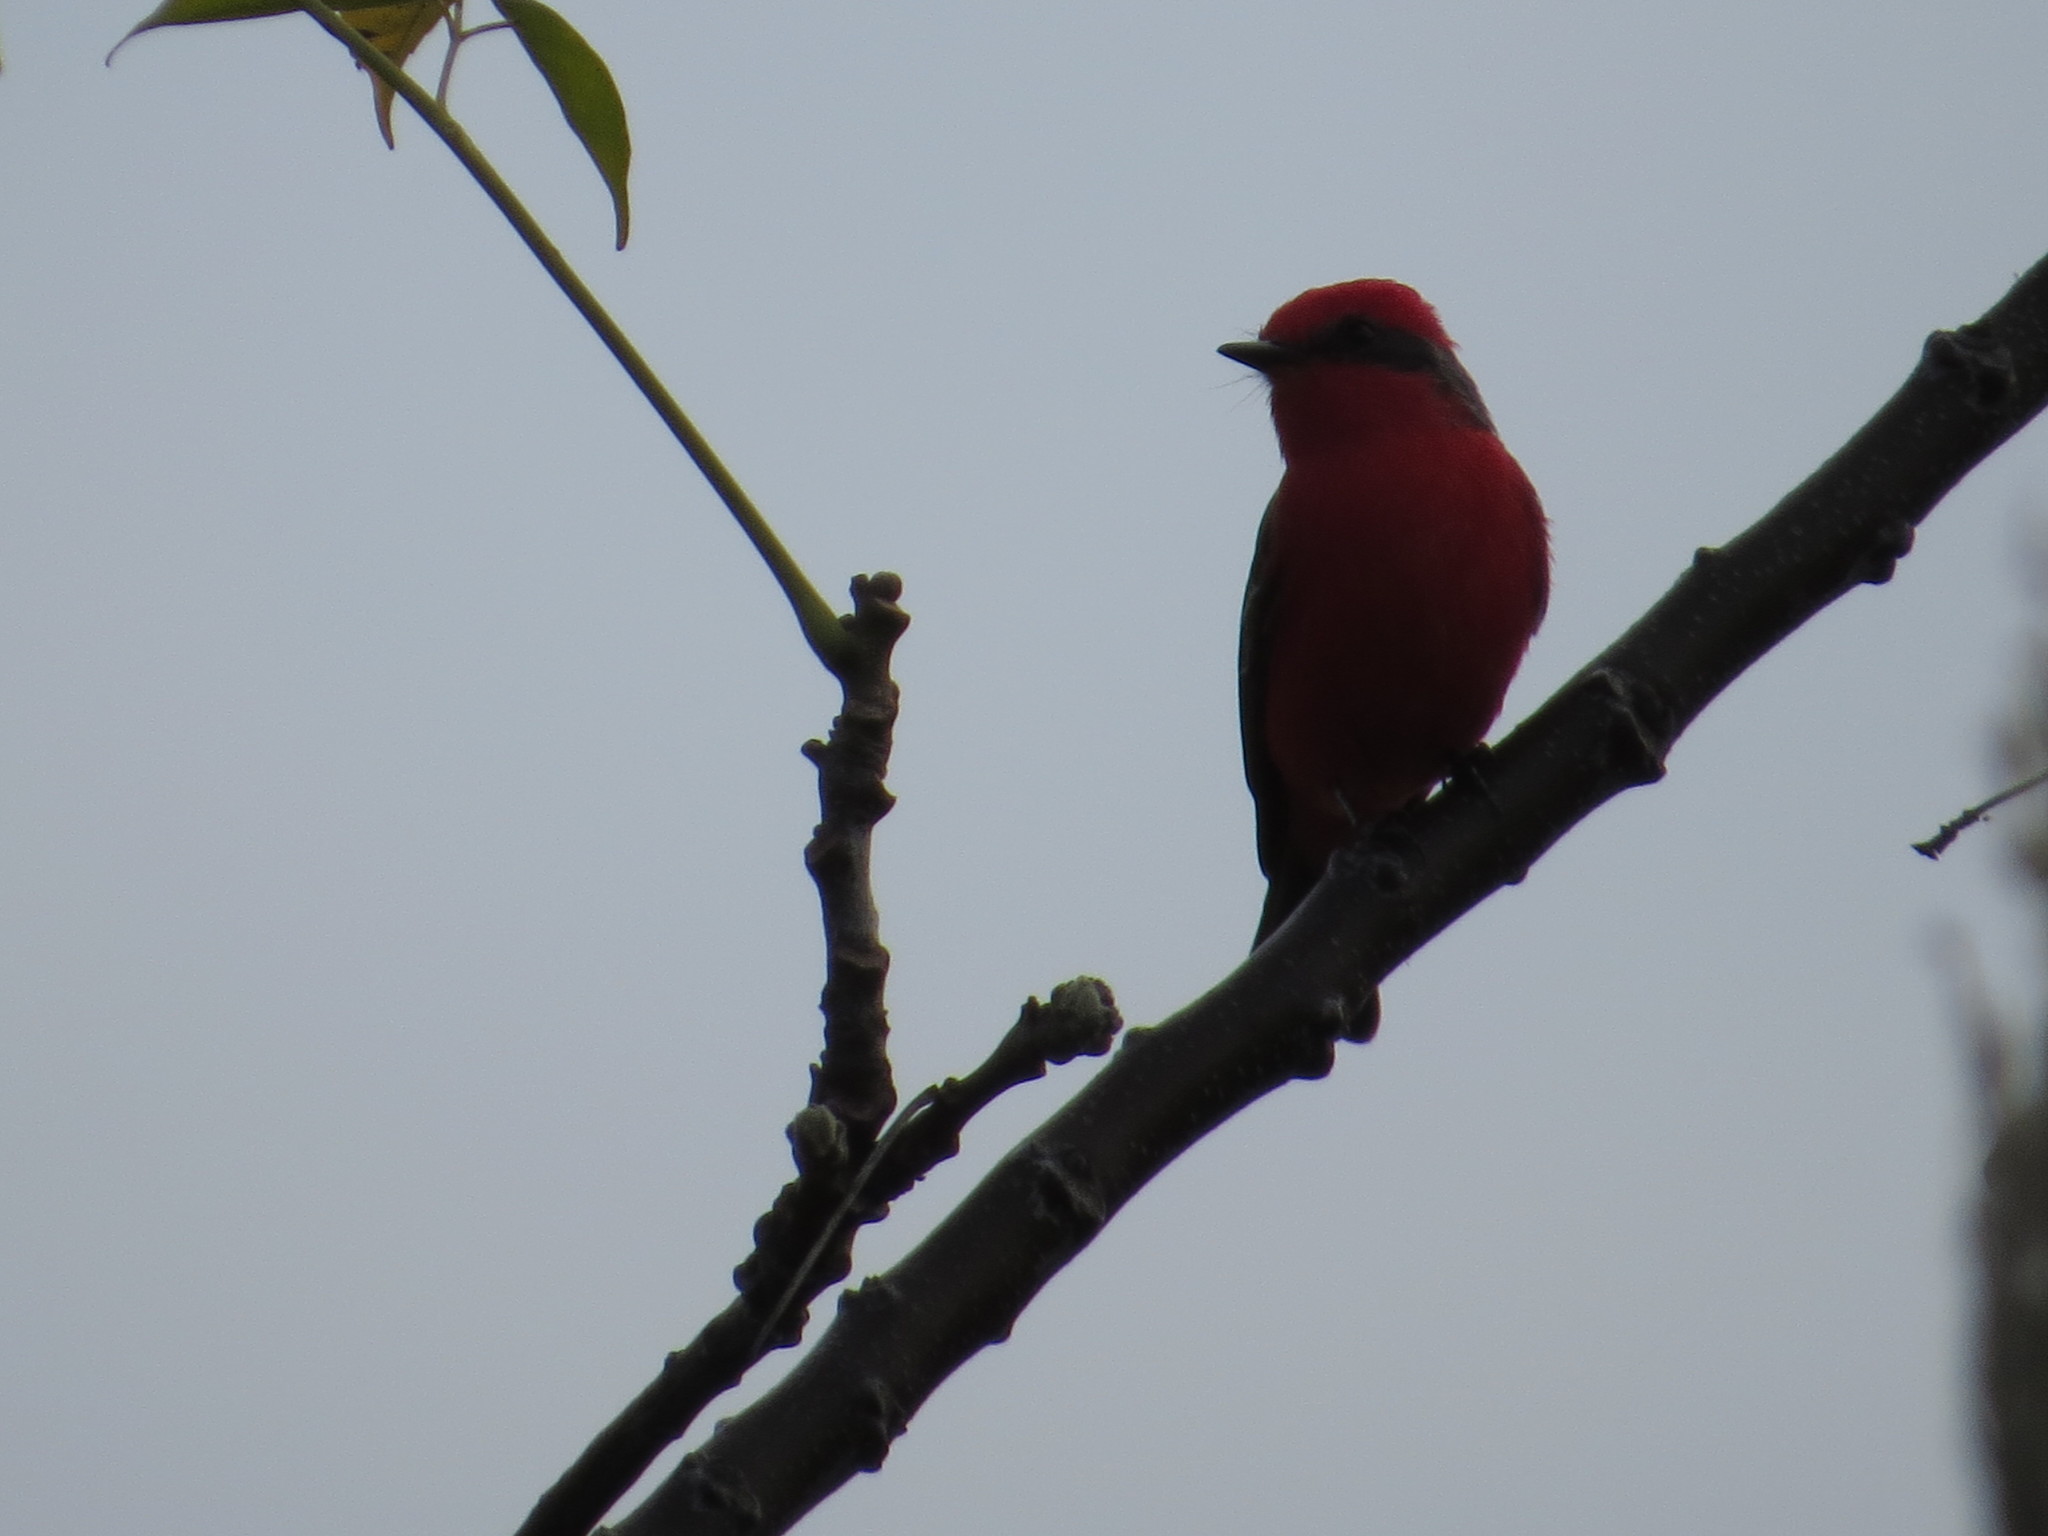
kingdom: Animalia
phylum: Chordata
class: Aves
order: Passeriformes
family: Tyrannidae
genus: Pyrocephalus
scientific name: Pyrocephalus rubinus
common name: Vermilion flycatcher
